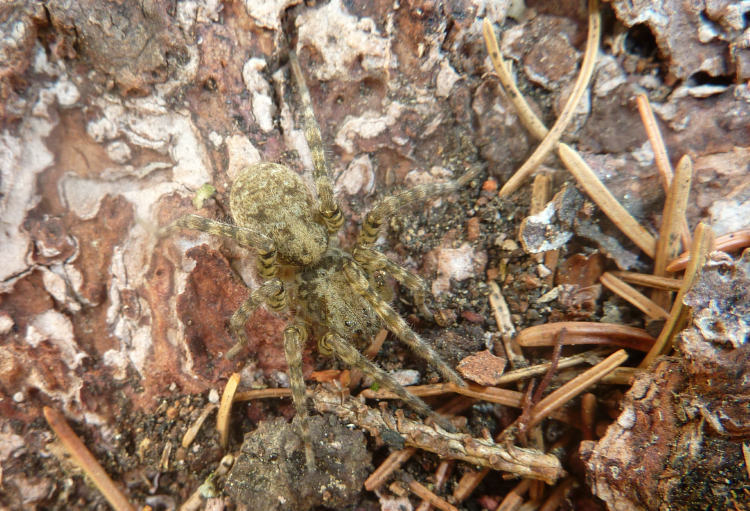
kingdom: Animalia
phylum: Arthropoda
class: Arachnida
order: Araneae
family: Lycosidae
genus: Arctosa
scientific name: Arctosa maculata
